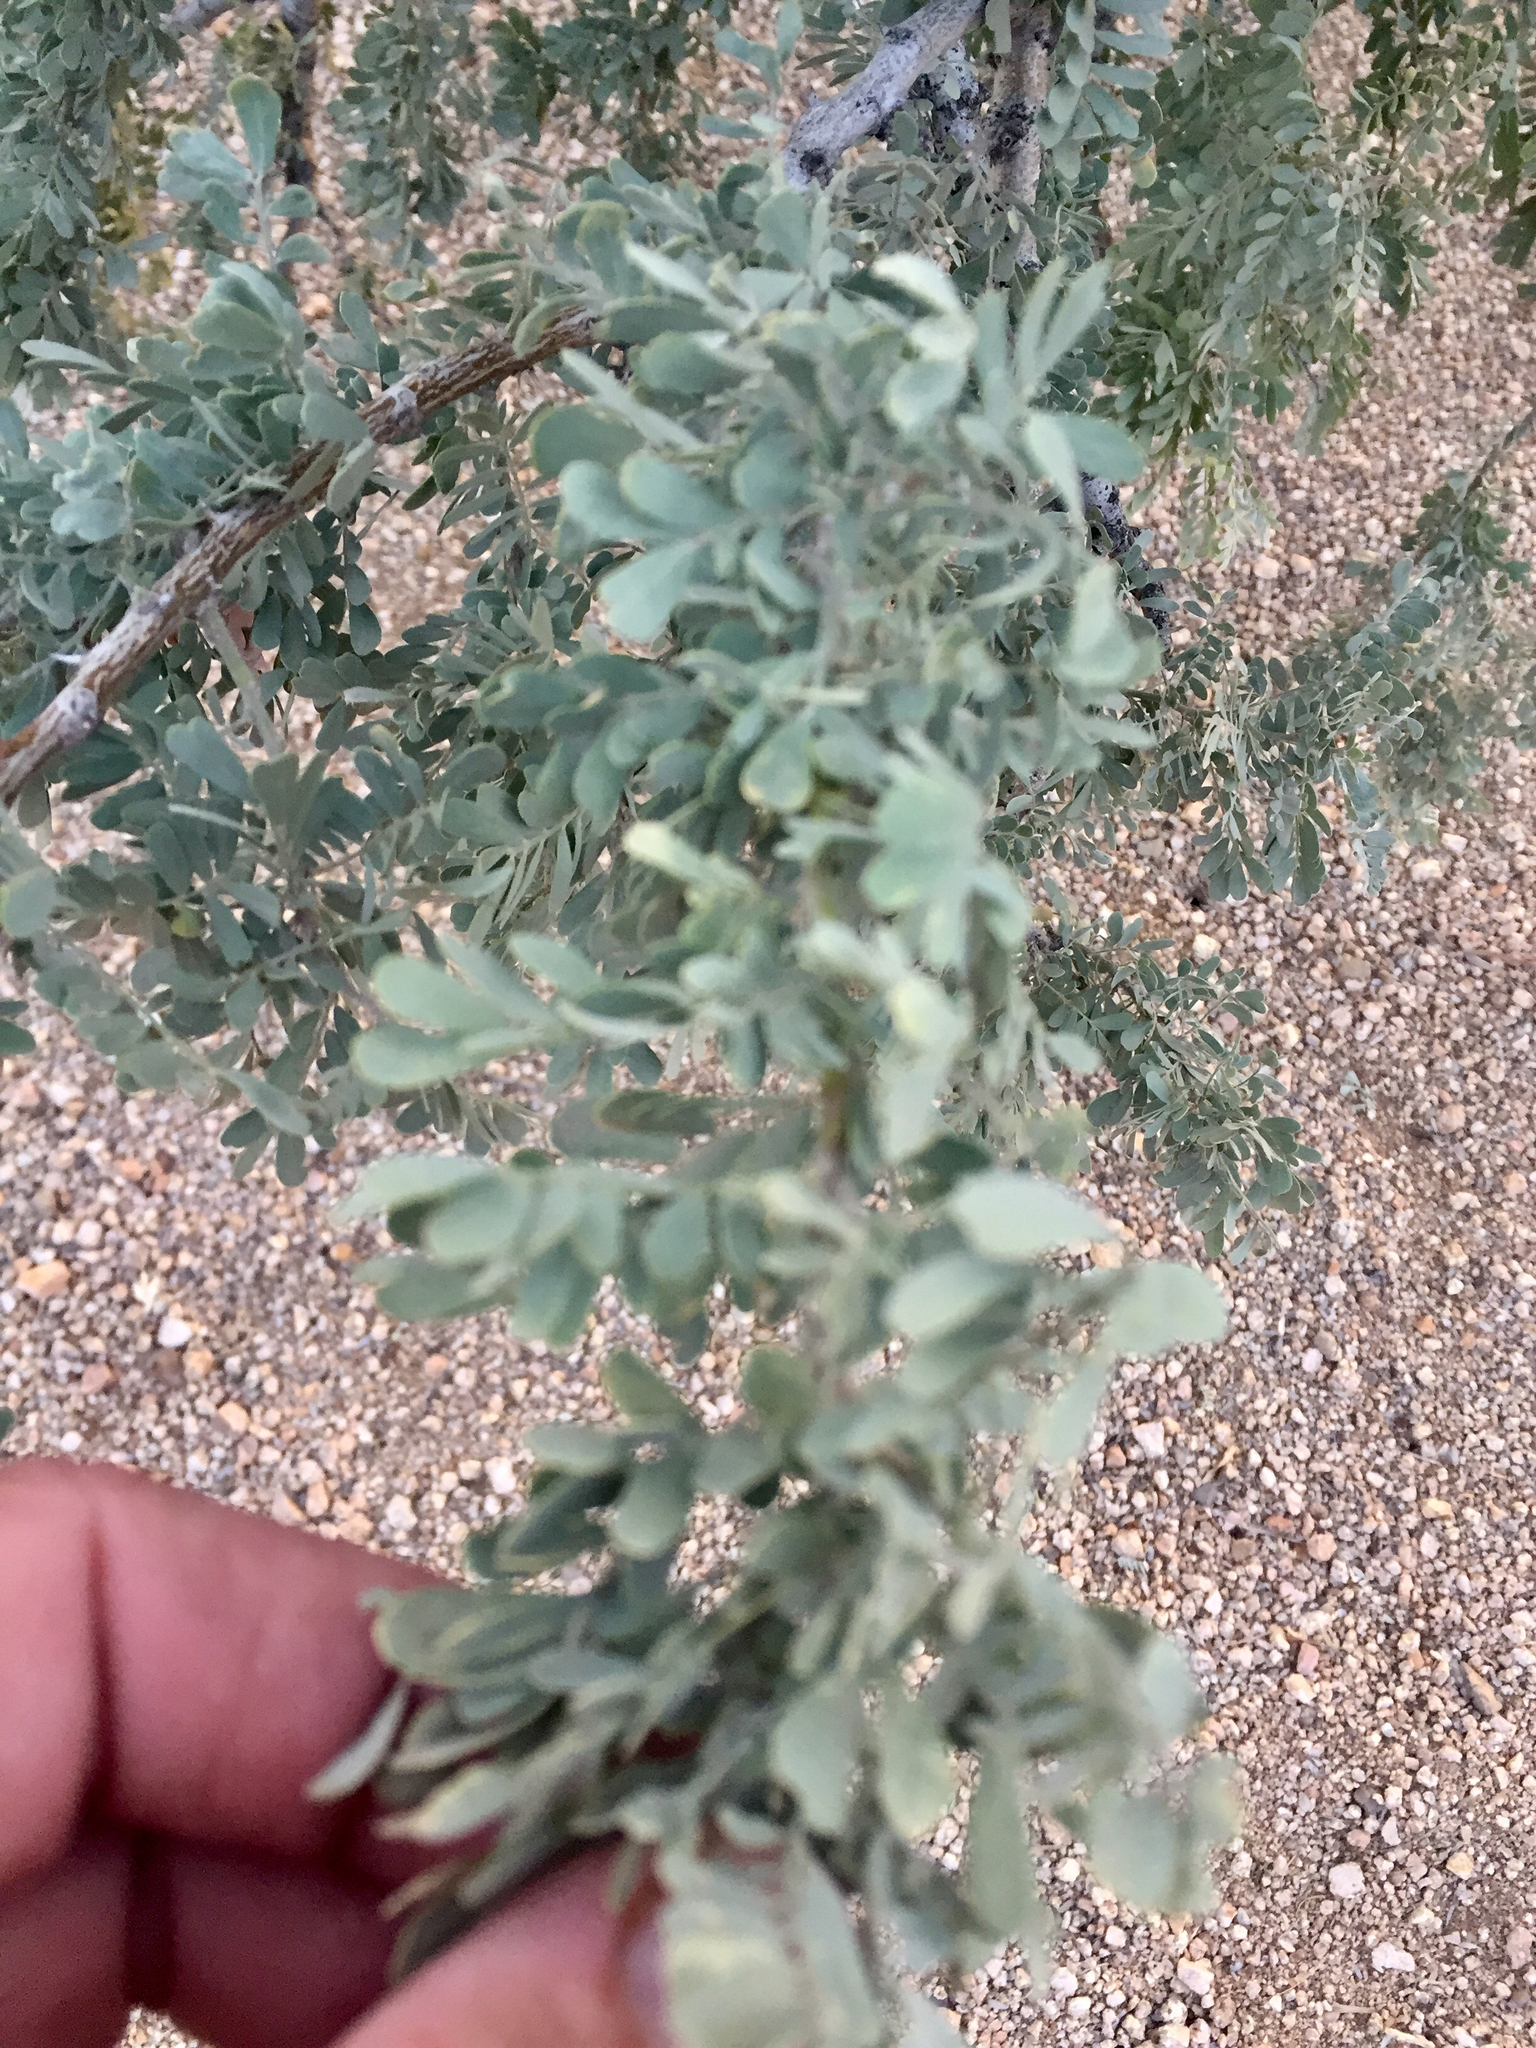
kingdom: Plantae
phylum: Tracheophyta
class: Magnoliopsida
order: Fabales
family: Fabaceae
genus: Olneya
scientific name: Olneya tesota
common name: Desert ironwood
